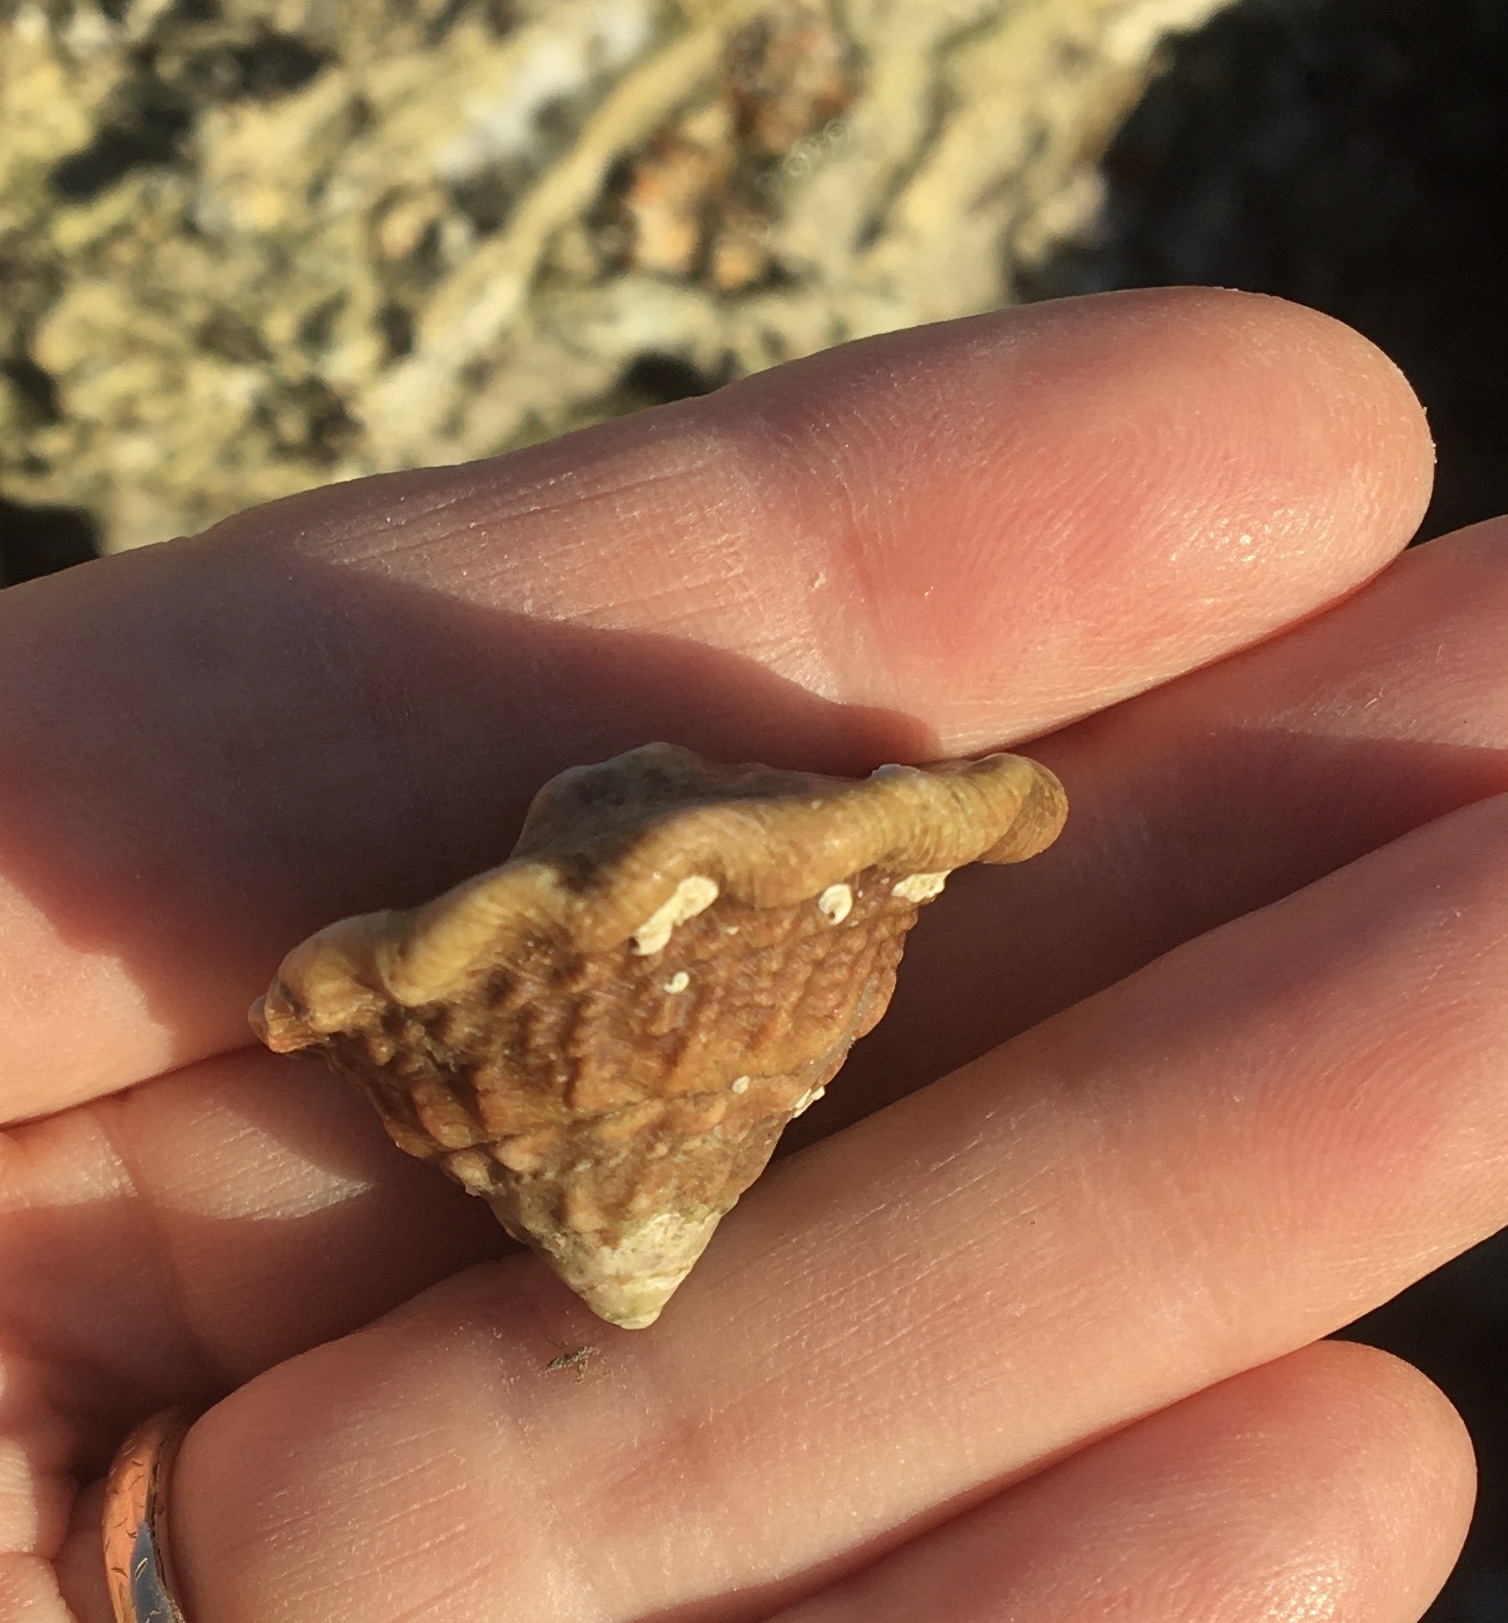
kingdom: Animalia
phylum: Mollusca
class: Gastropoda
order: Trochida
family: Turbinidae
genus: Megastraea
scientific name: Megastraea undosa
